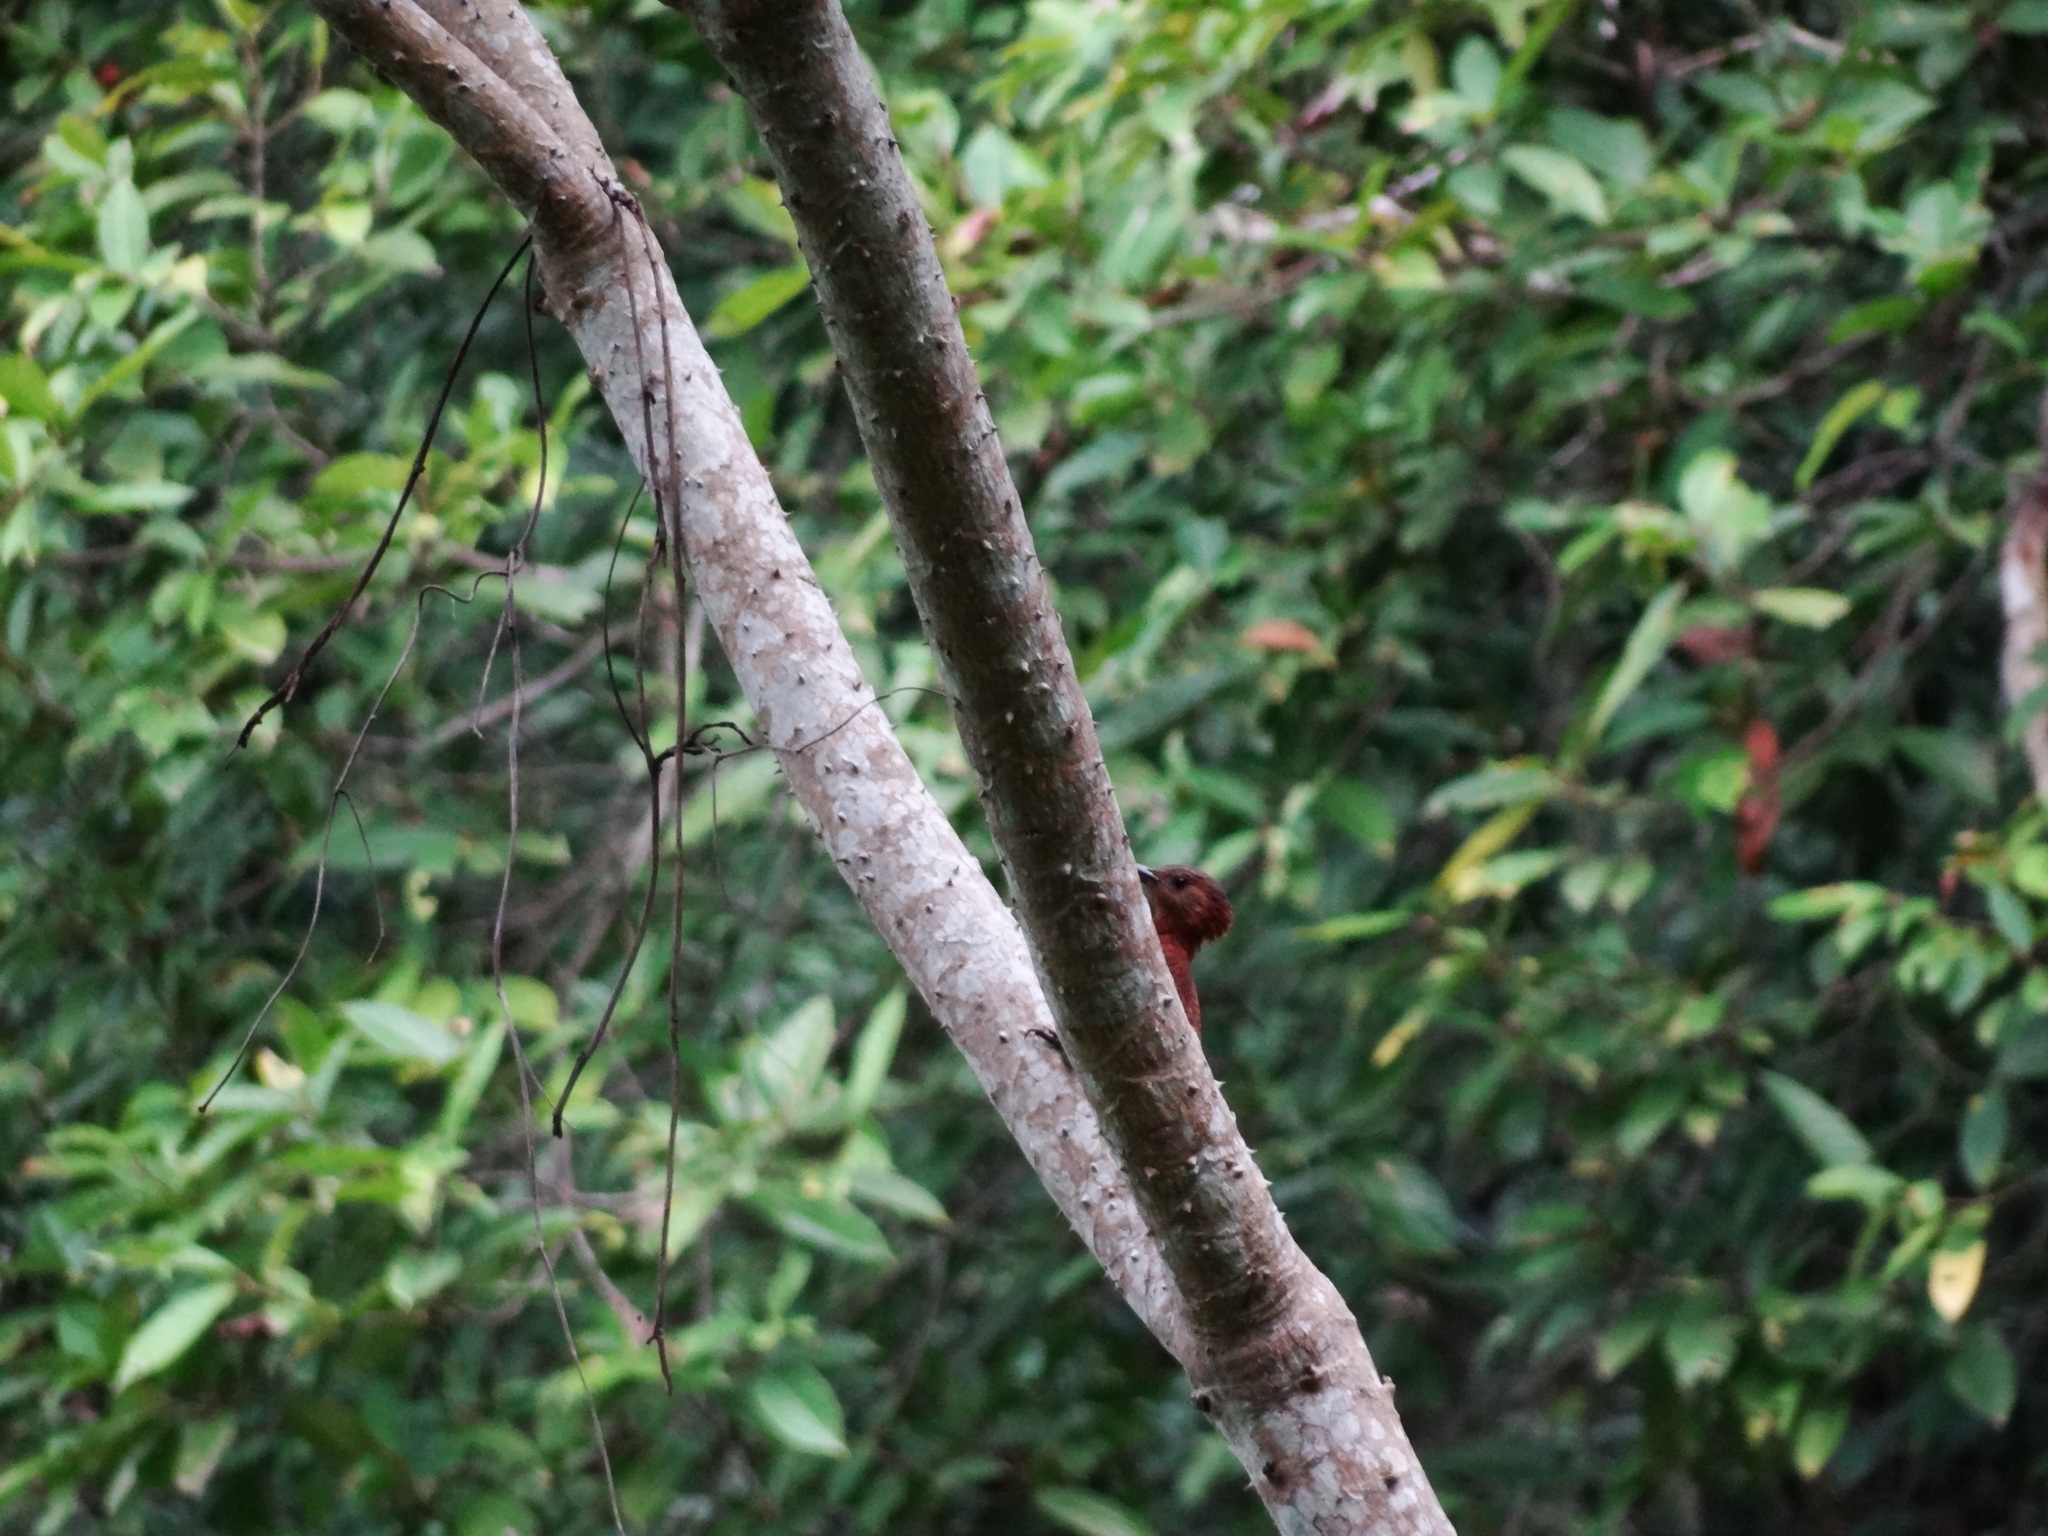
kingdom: Animalia
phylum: Chordata
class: Aves
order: Piciformes
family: Picidae
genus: Micropternus
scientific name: Micropternus brachyurus
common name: Rufous woodpecker
